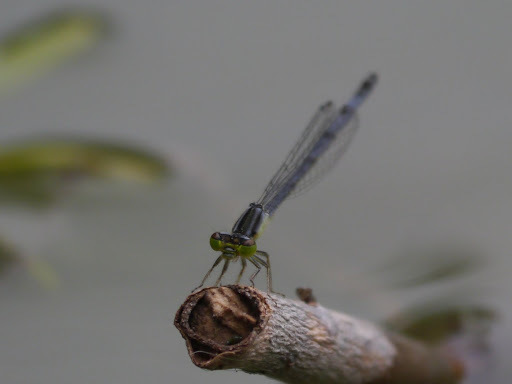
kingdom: Animalia
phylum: Arthropoda
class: Insecta
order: Odonata
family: Coenagrionidae
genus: Ischnura
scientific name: Ischnura verticalis
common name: Eastern forktail
